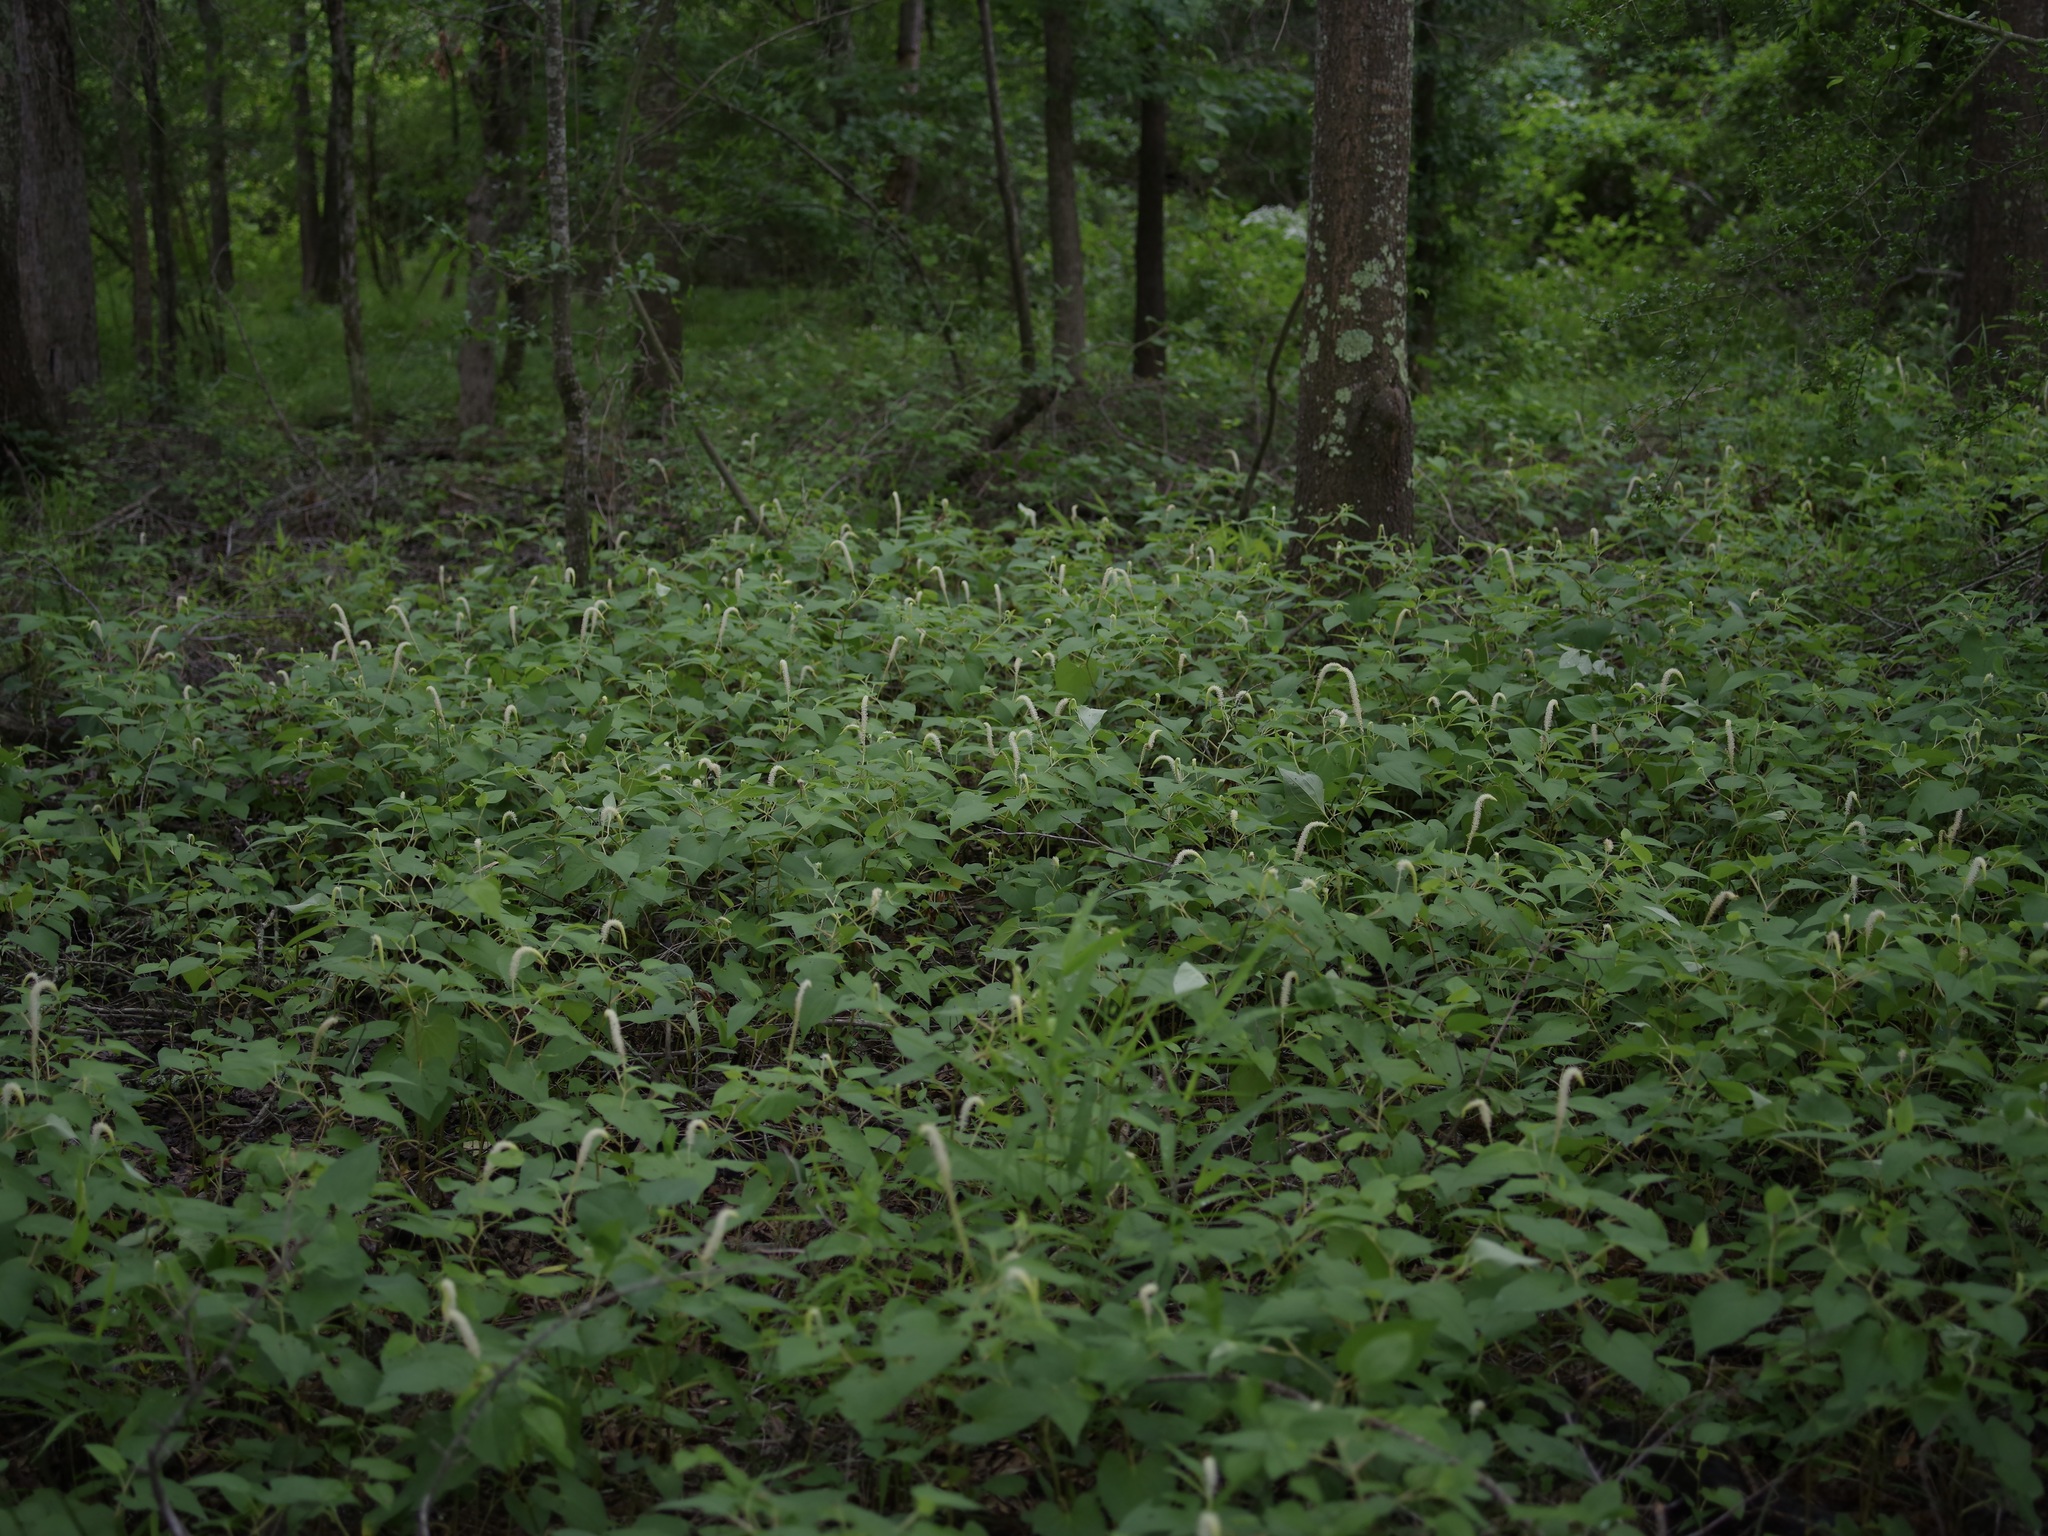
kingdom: Plantae
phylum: Tracheophyta
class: Magnoliopsida
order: Piperales
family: Saururaceae
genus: Saururus
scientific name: Saururus cernuus
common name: Lizard's-tail
